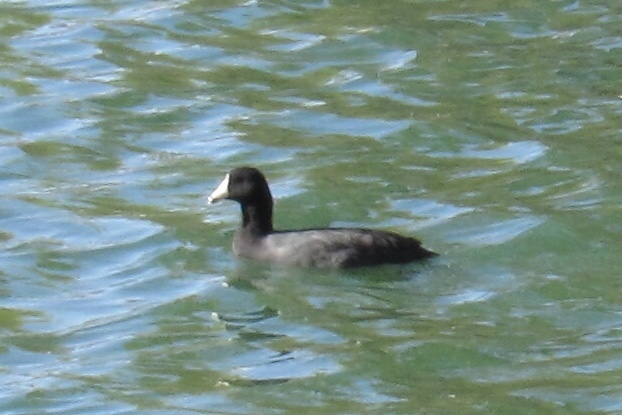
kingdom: Animalia
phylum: Chordata
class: Aves
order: Gruiformes
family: Rallidae
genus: Fulica
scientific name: Fulica americana
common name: American coot
